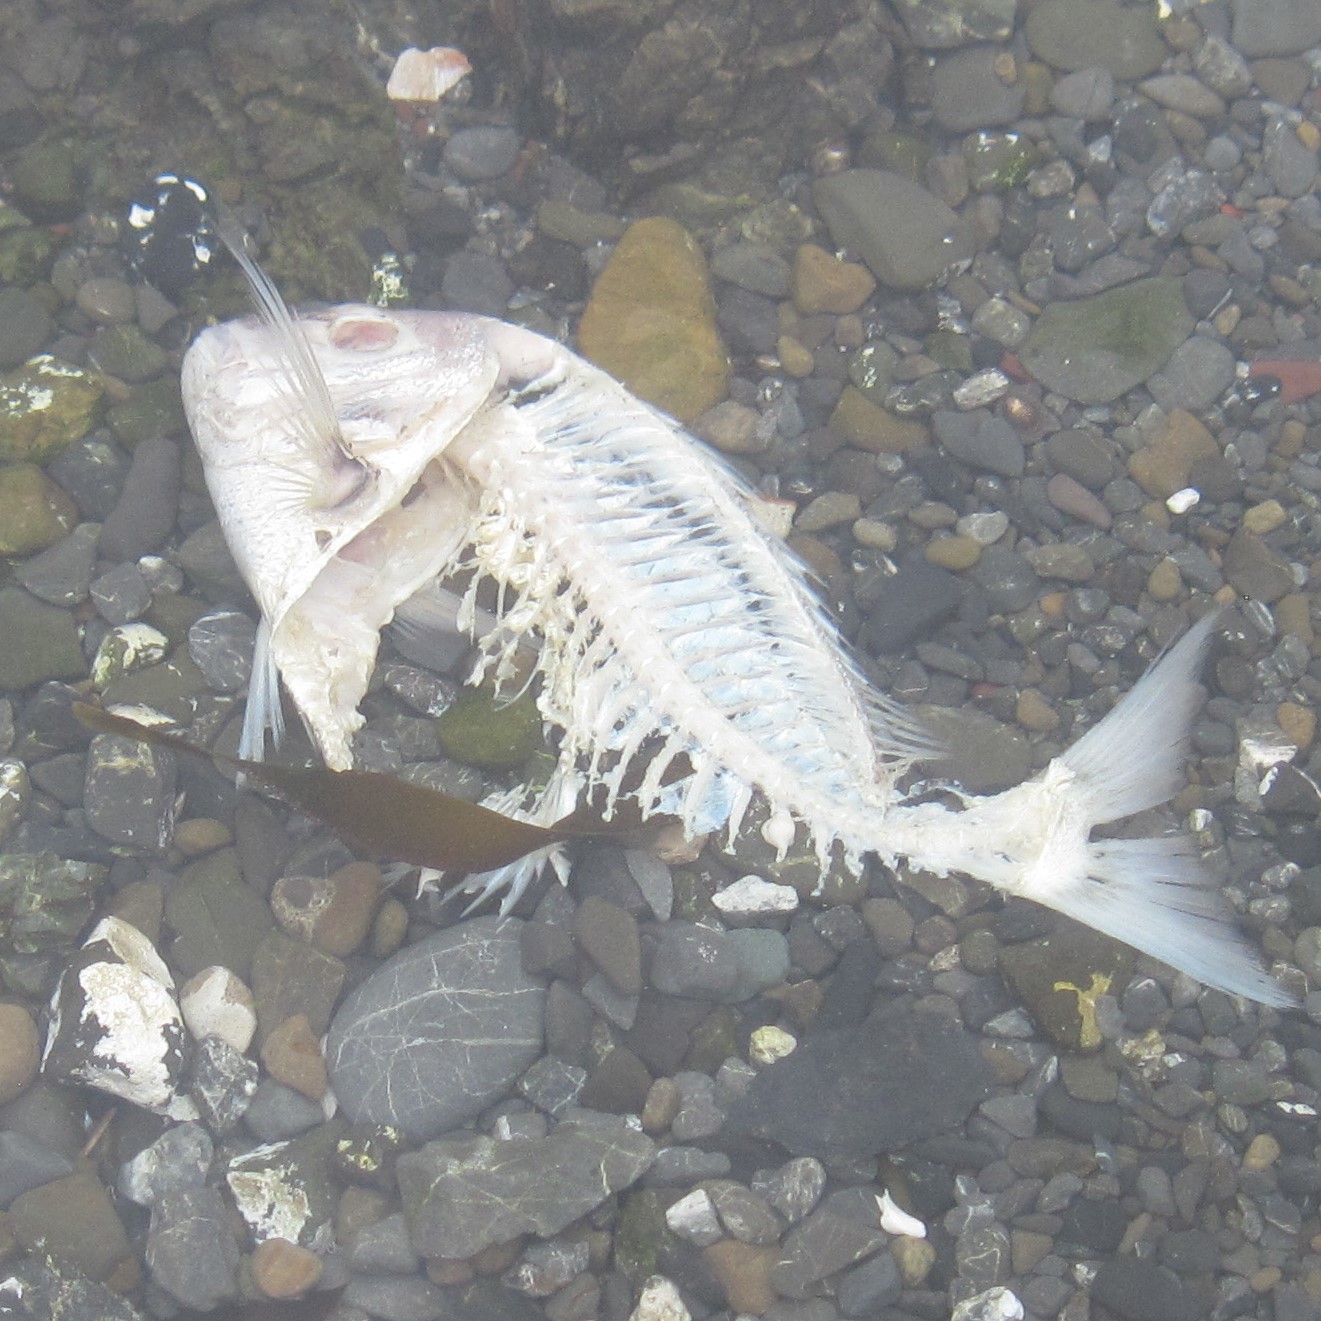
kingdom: Animalia
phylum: Chordata
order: Perciformes
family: Sparidae
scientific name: Sparidae
